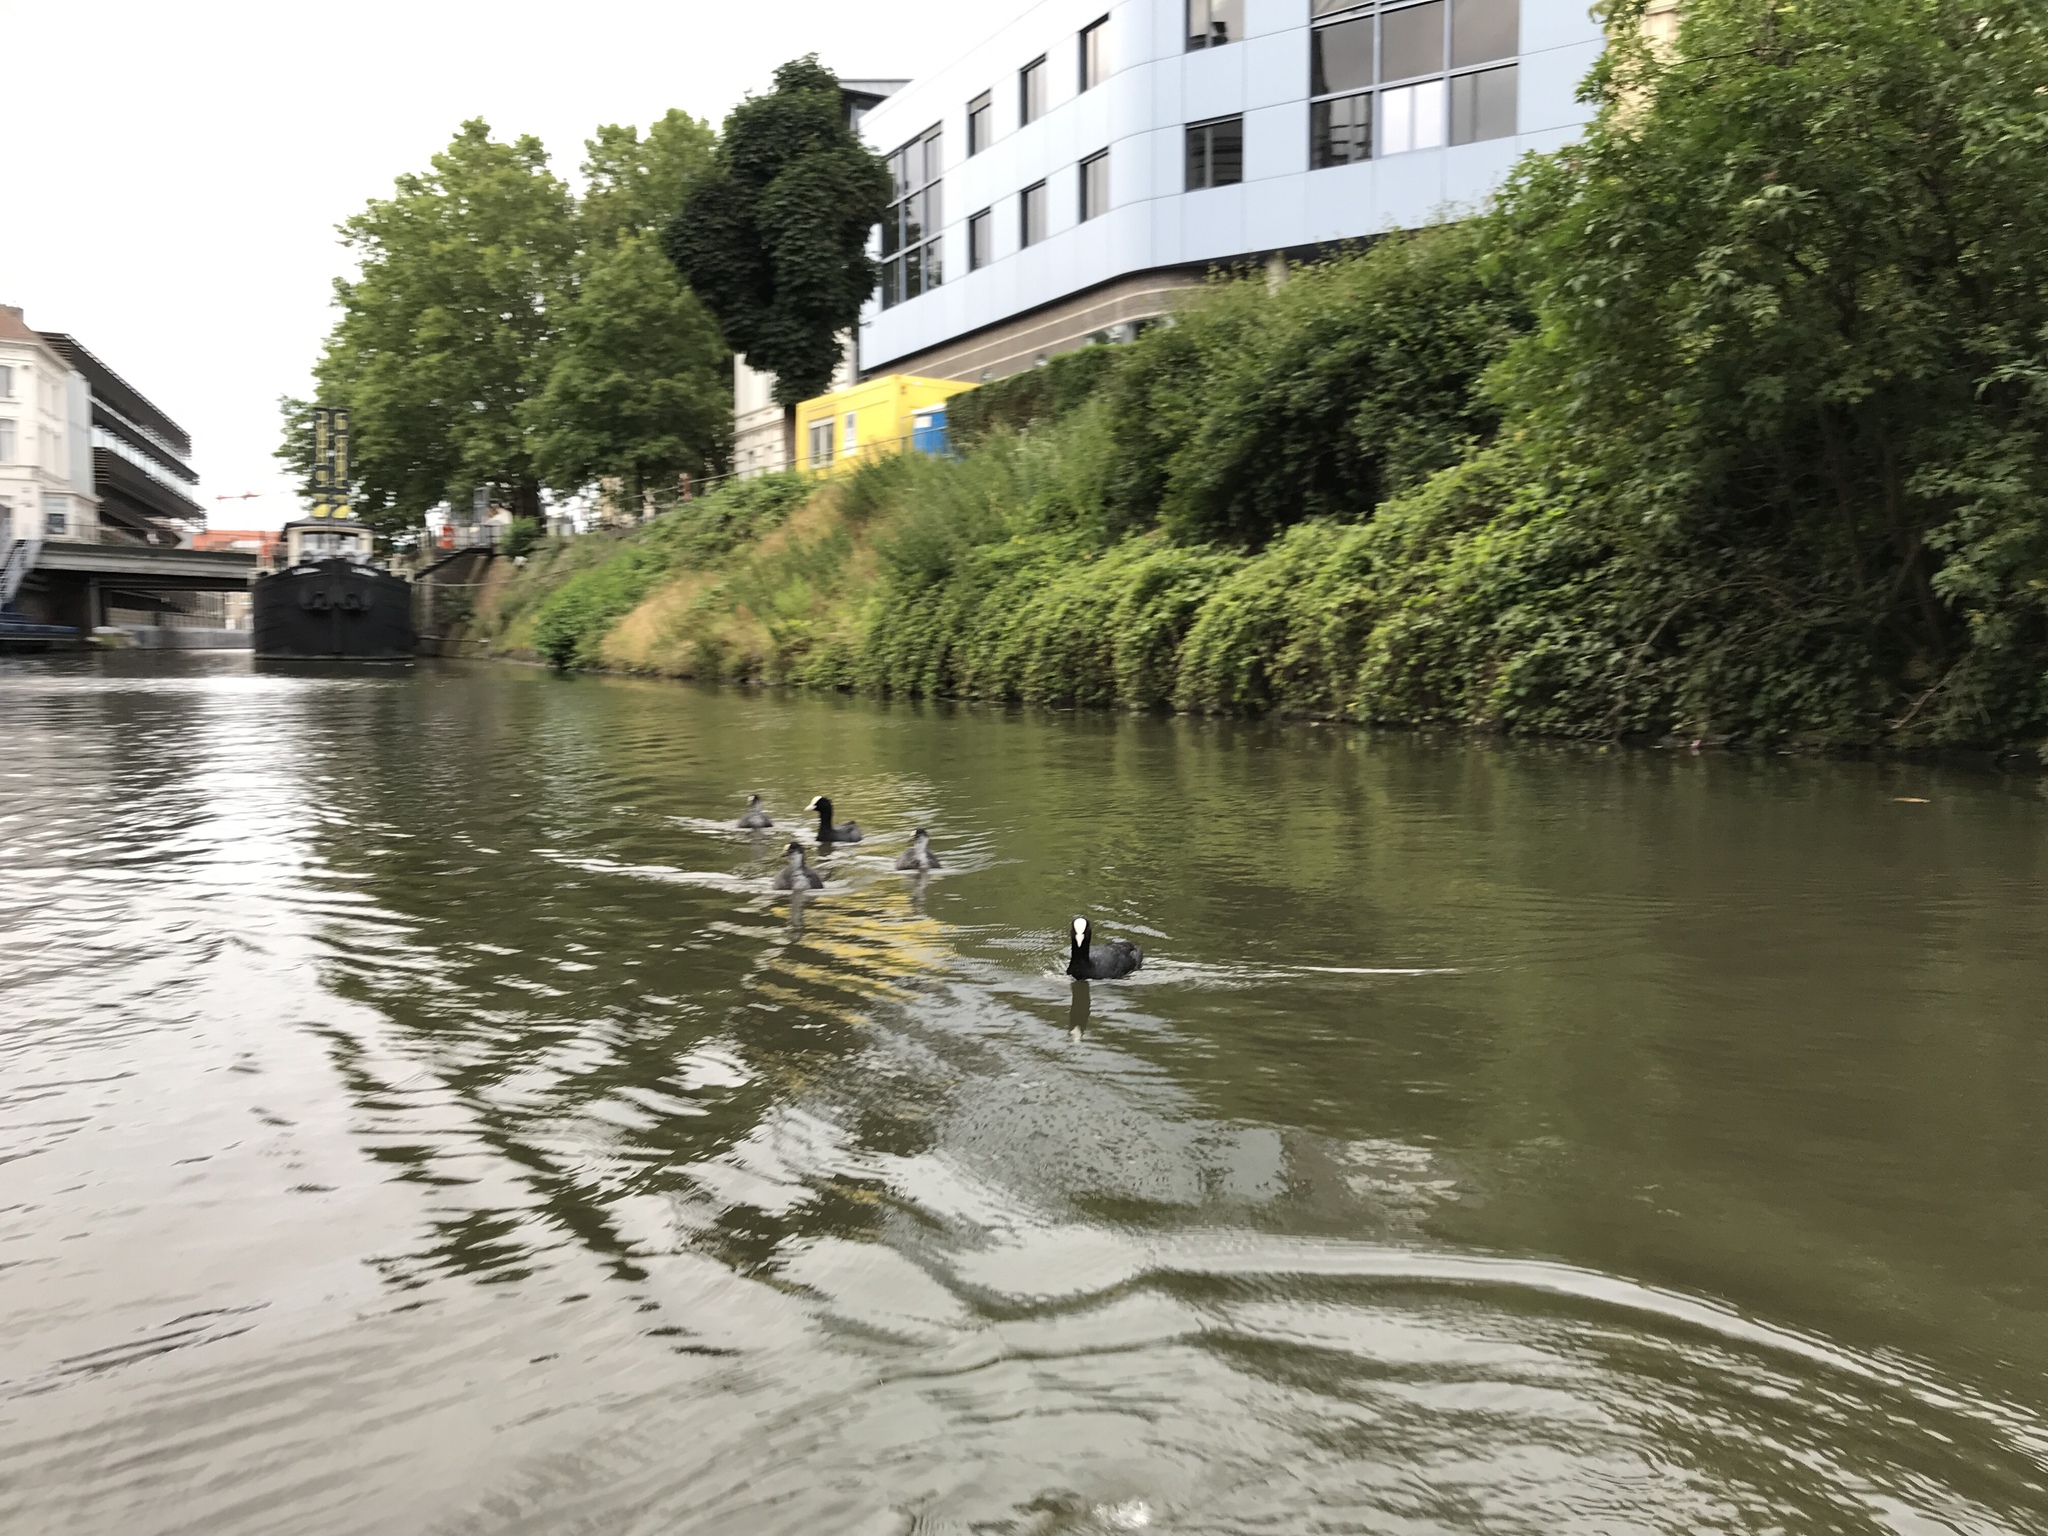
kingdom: Animalia
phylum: Chordata
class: Aves
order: Gruiformes
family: Rallidae
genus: Fulica
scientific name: Fulica atra
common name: Eurasian coot
